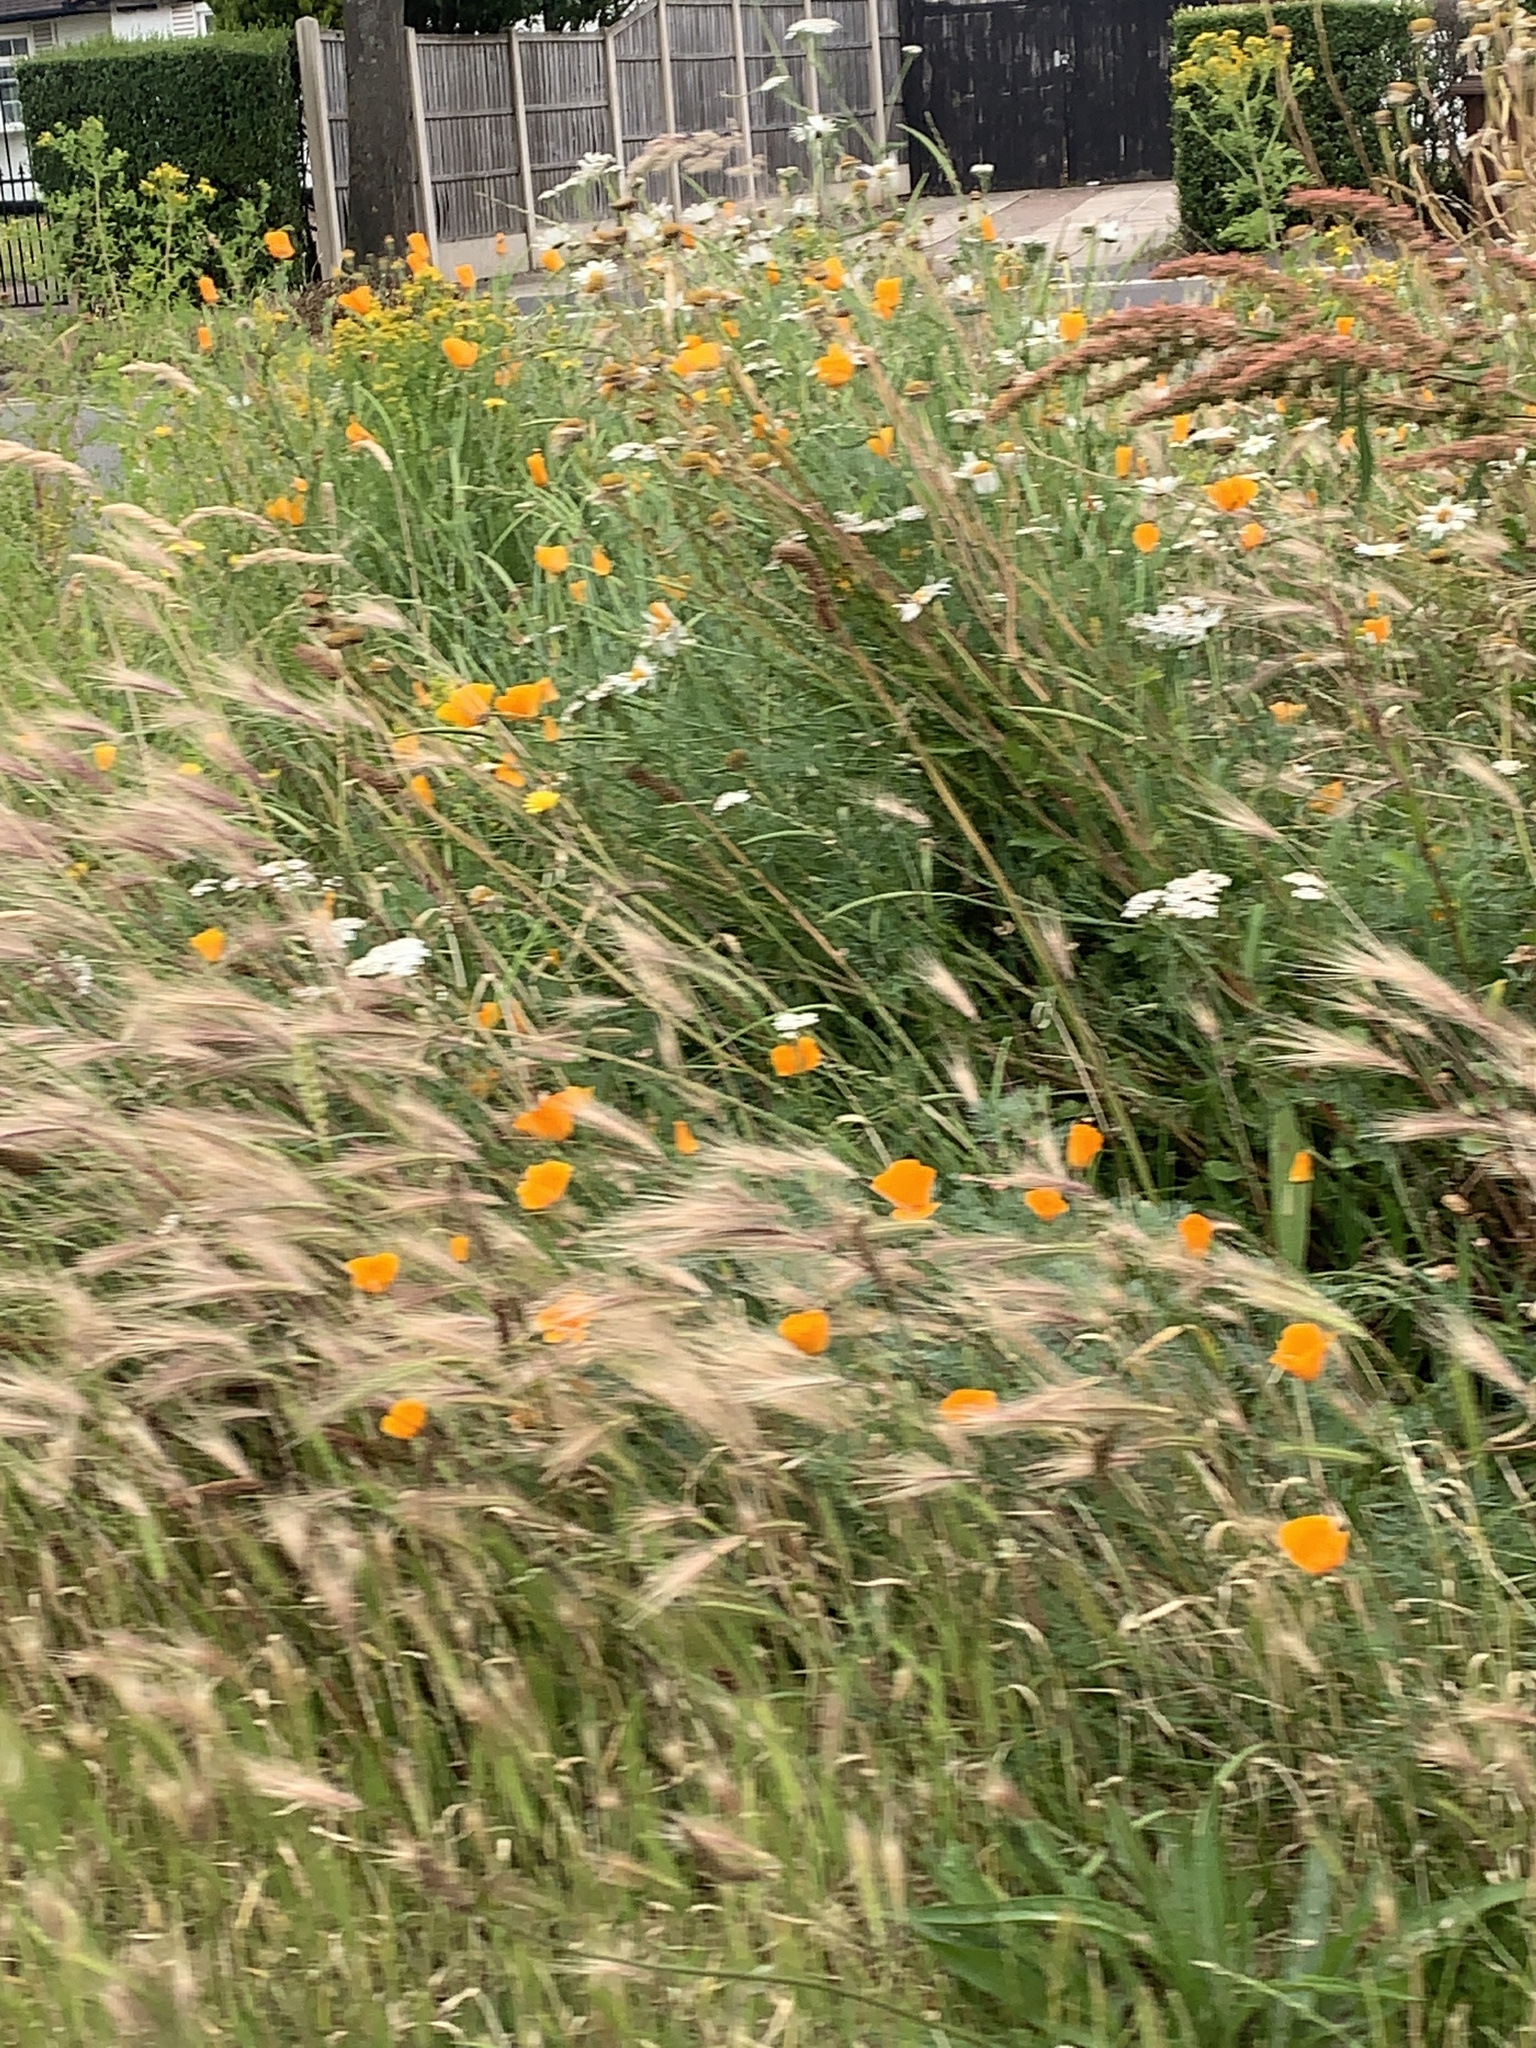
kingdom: Plantae
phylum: Tracheophyta
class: Magnoliopsida
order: Ranunculales
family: Papaveraceae
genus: Eschscholzia
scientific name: Eschscholzia californica
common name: California poppy
